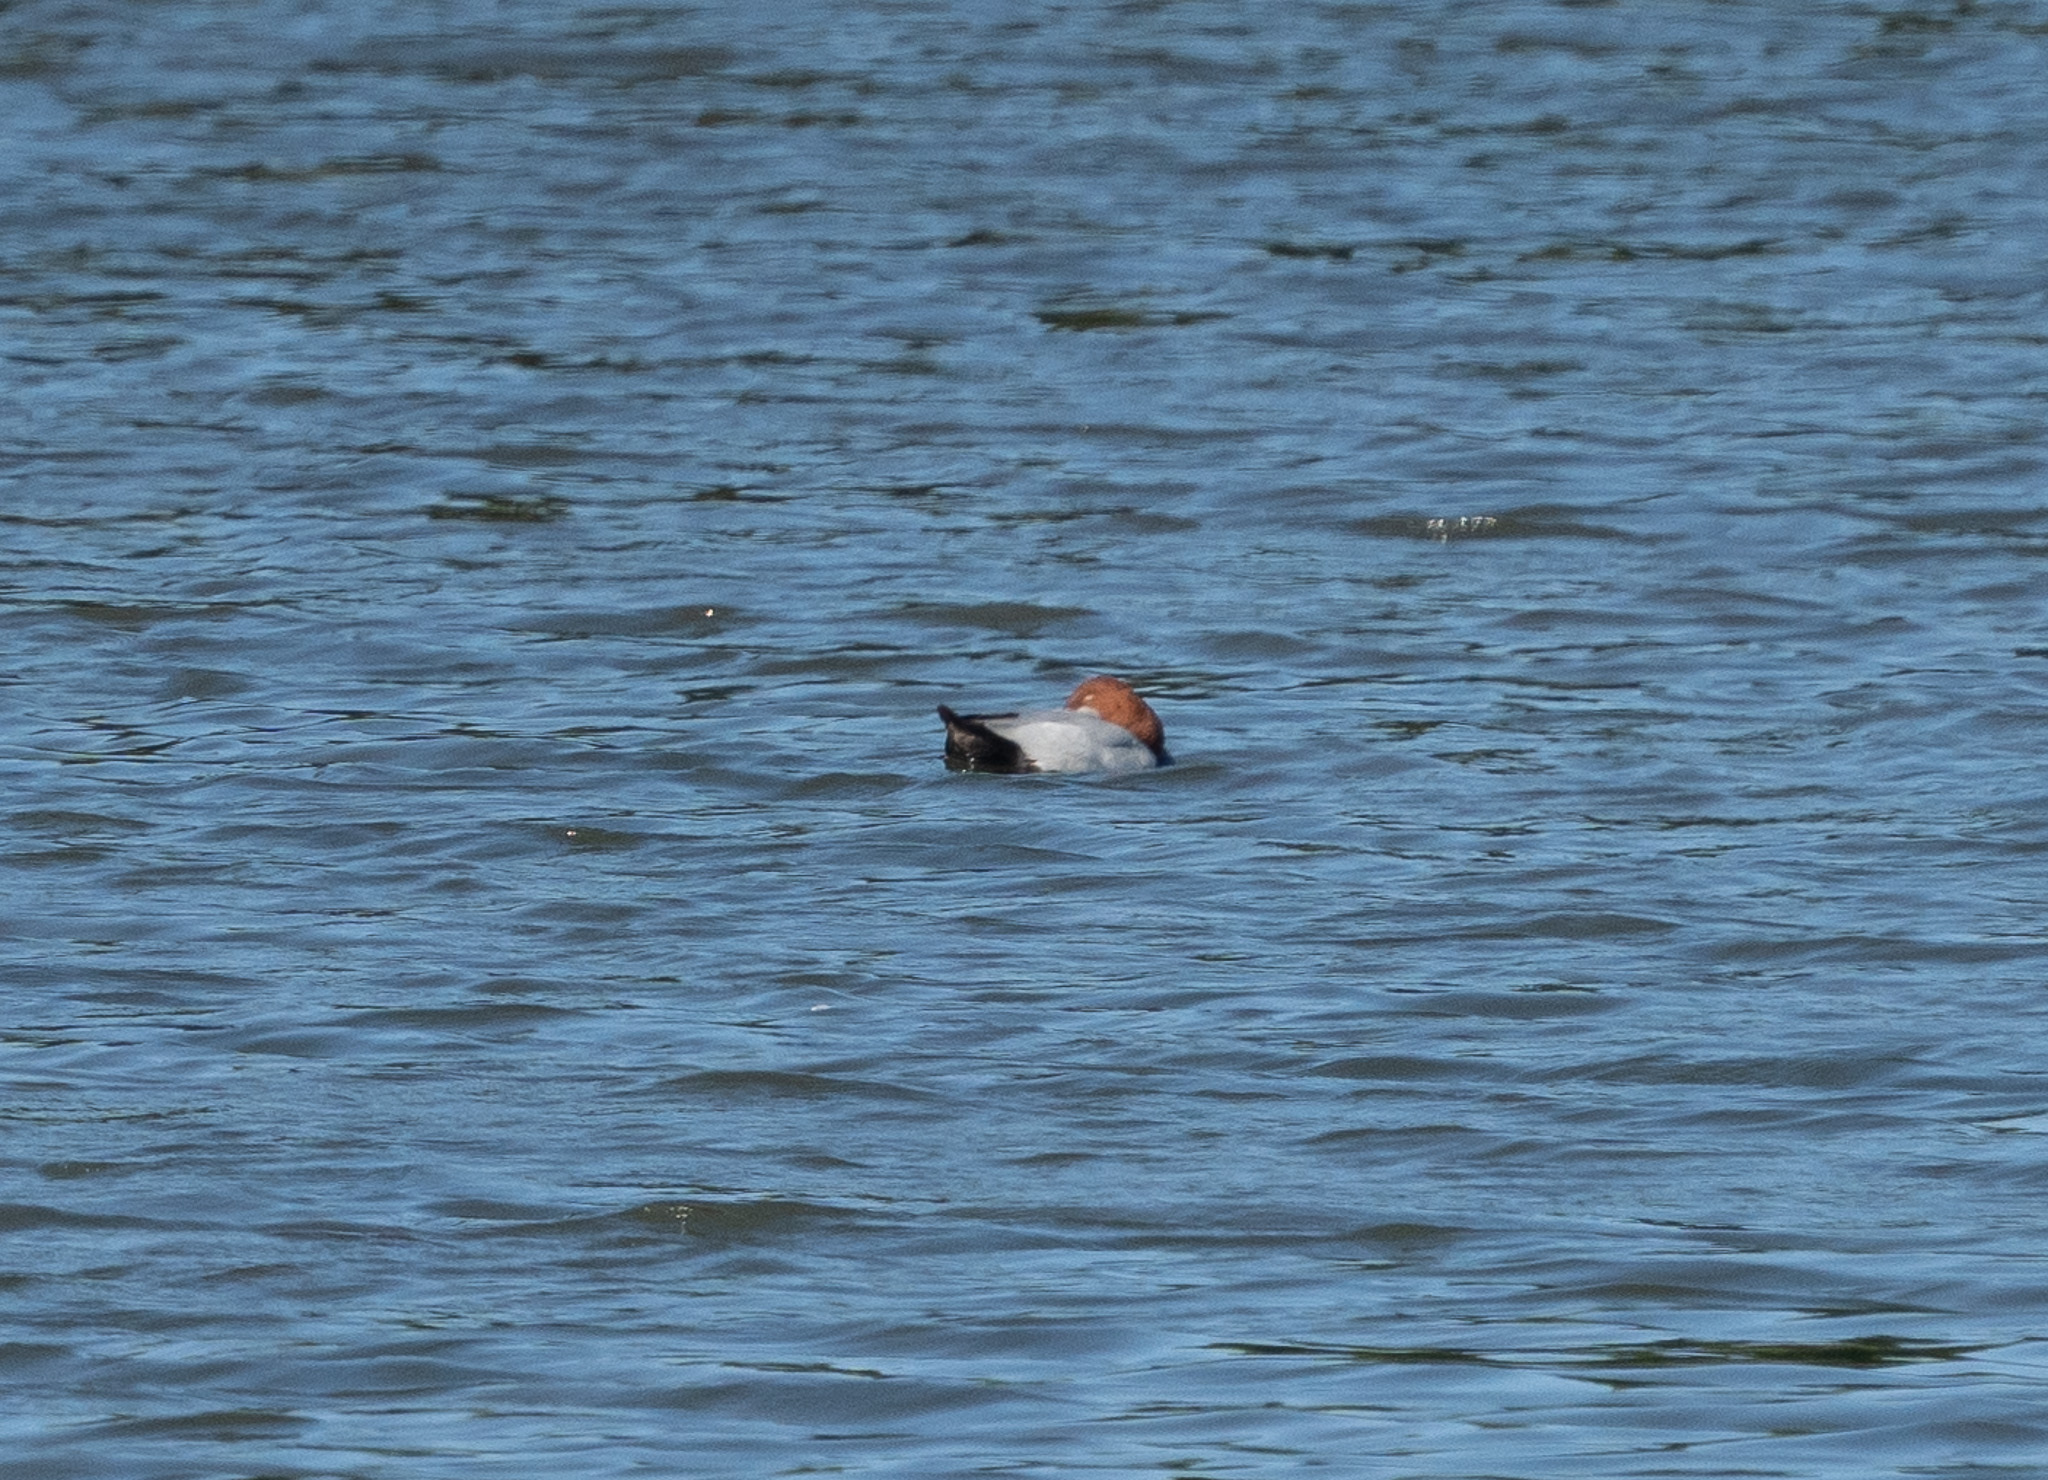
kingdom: Animalia
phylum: Chordata
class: Aves
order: Anseriformes
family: Anatidae
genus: Aythya
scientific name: Aythya ferina
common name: Common pochard
